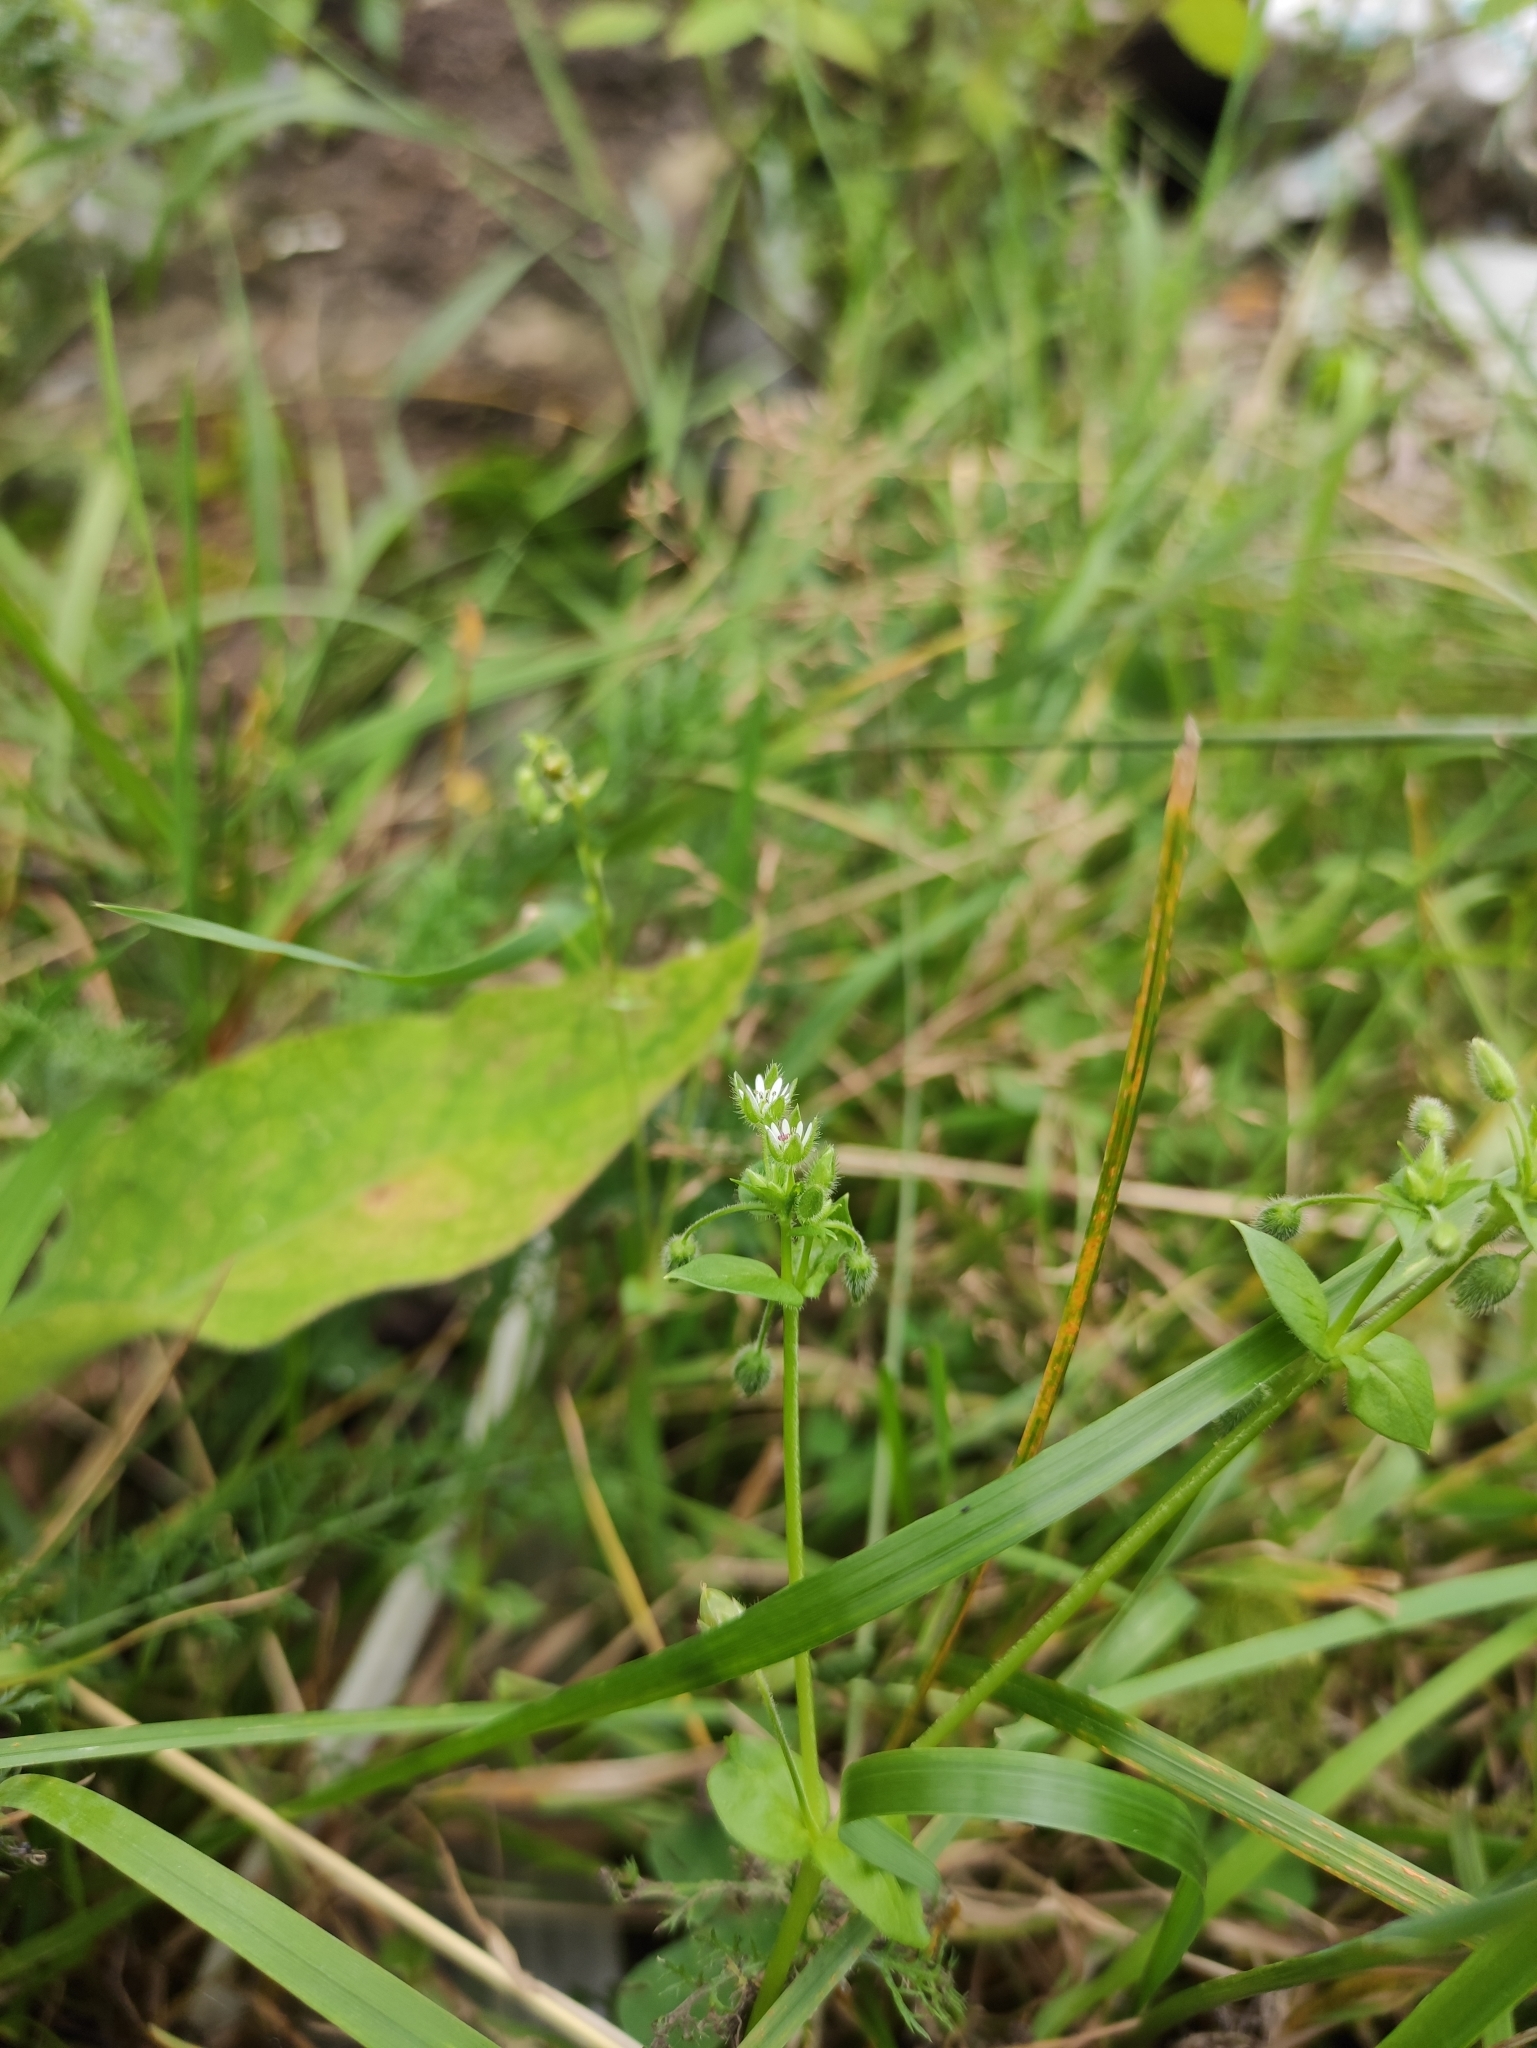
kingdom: Plantae
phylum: Tracheophyta
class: Magnoliopsida
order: Caryophyllales
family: Caryophyllaceae
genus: Stellaria
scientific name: Stellaria media
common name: Common chickweed
